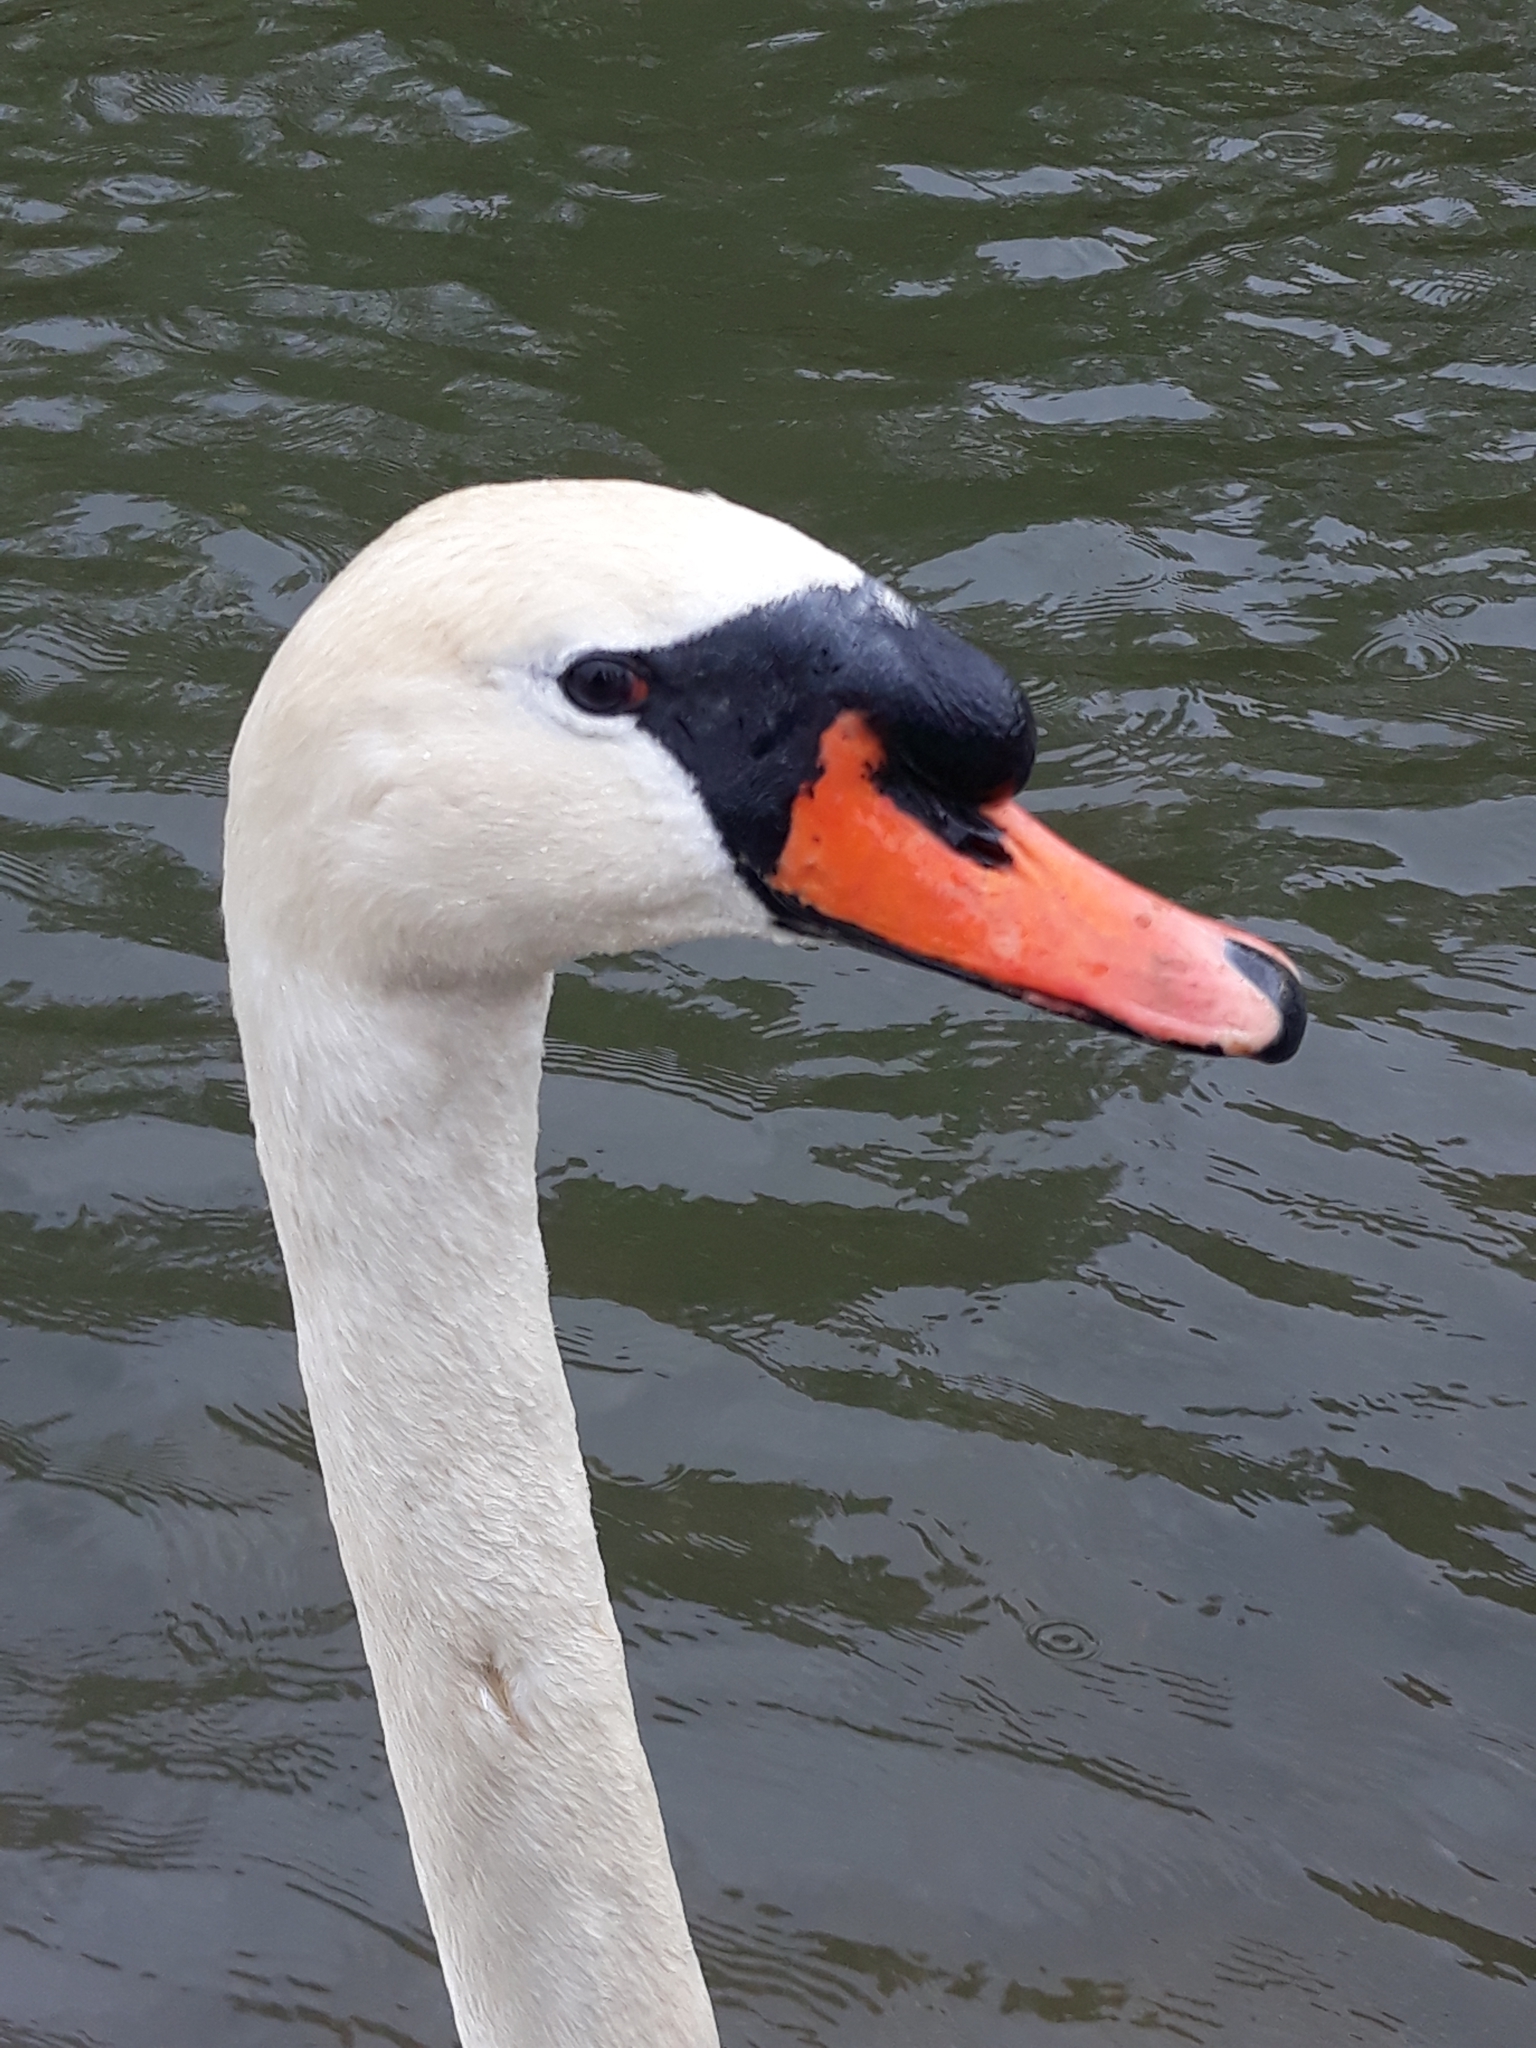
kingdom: Animalia
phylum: Chordata
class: Aves
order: Anseriformes
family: Anatidae
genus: Cygnus
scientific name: Cygnus olor
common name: Mute swan
